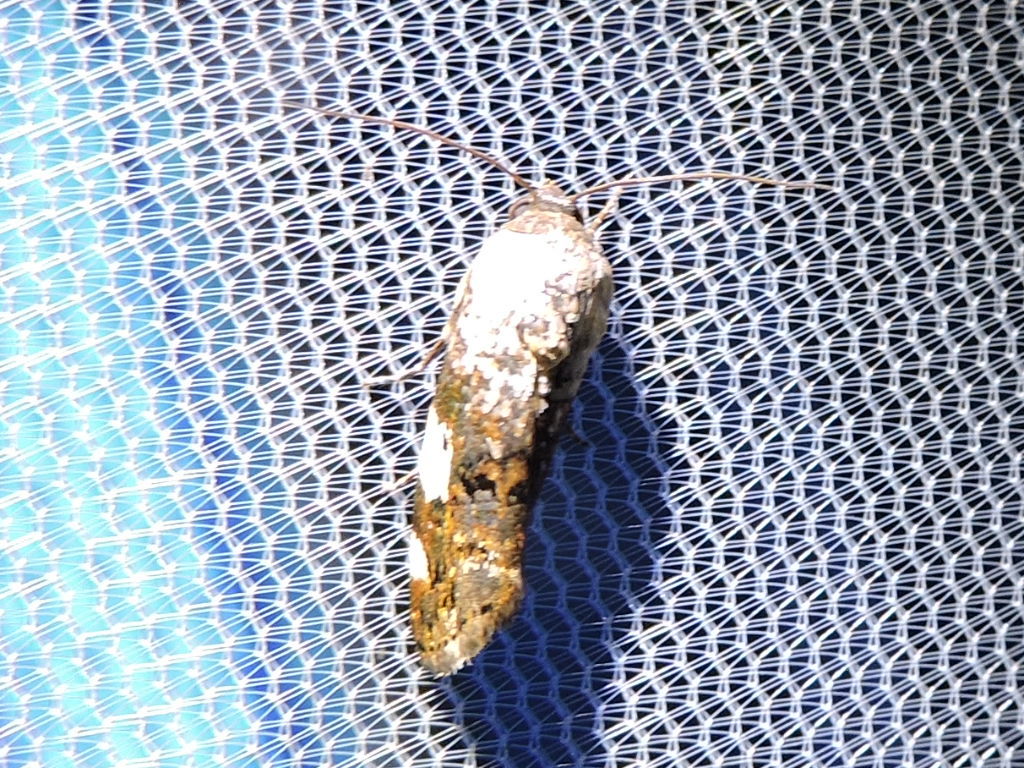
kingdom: Animalia
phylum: Arthropoda
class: Insecta
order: Lepidoptera
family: Noctuidae
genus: Acontia
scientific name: Acontia aprica
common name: Nun
